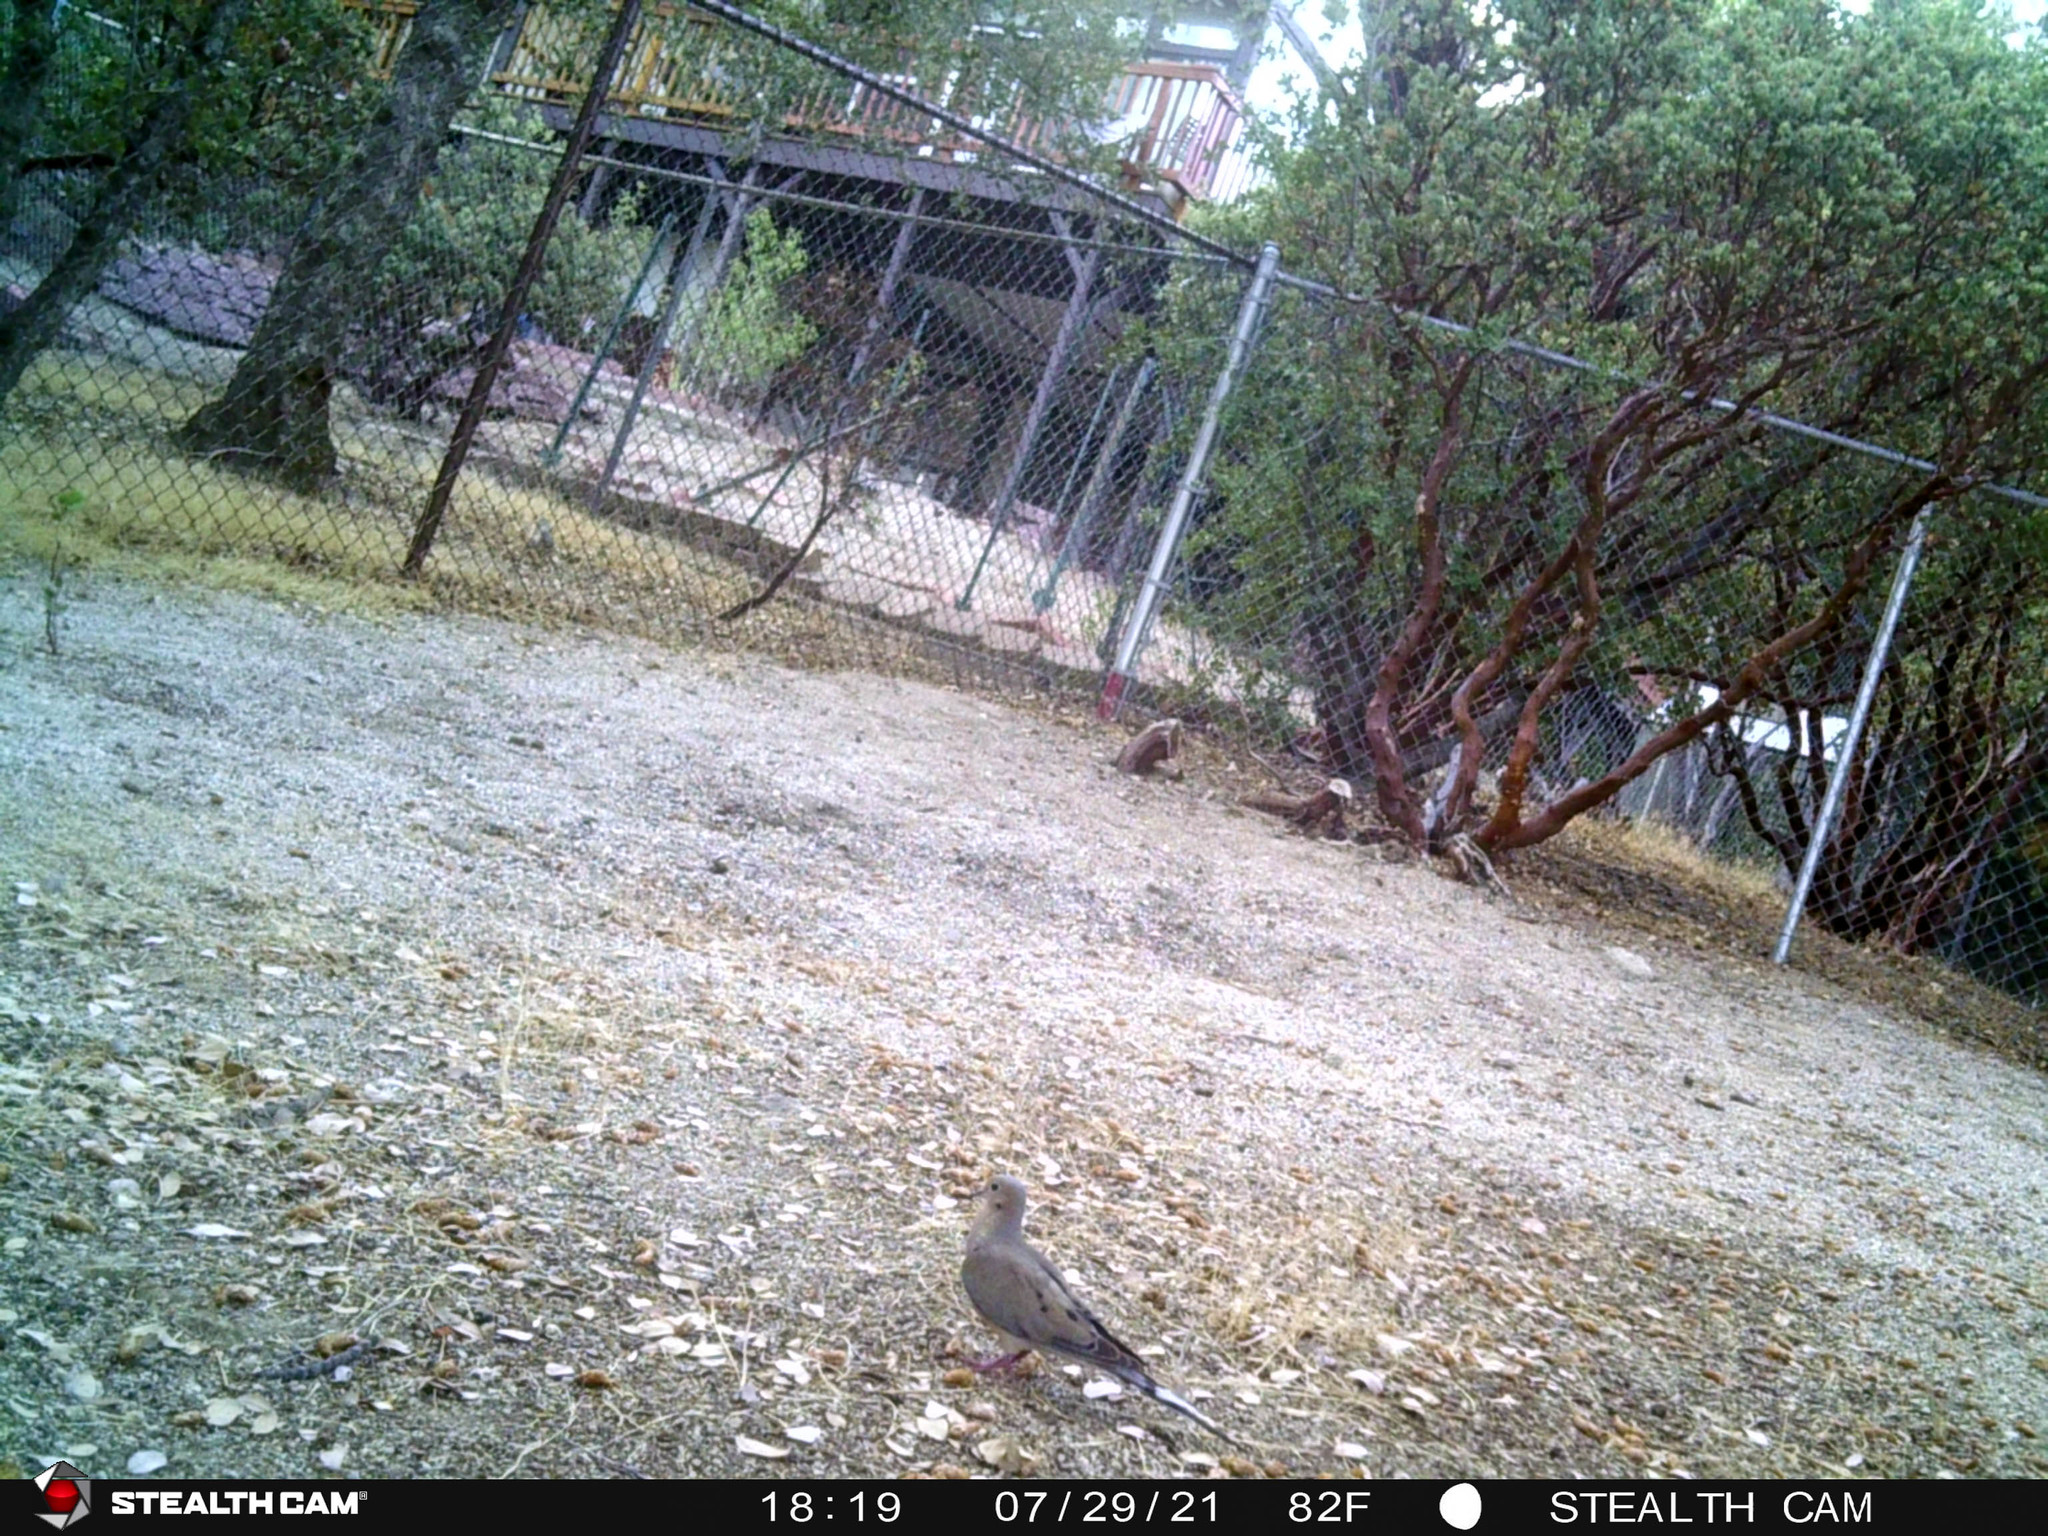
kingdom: Animalia
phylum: Chordata
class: Aves
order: Columbiformes
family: Columbidae
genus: Zenaida
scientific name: Zenaida macroura
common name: Mourning dove
